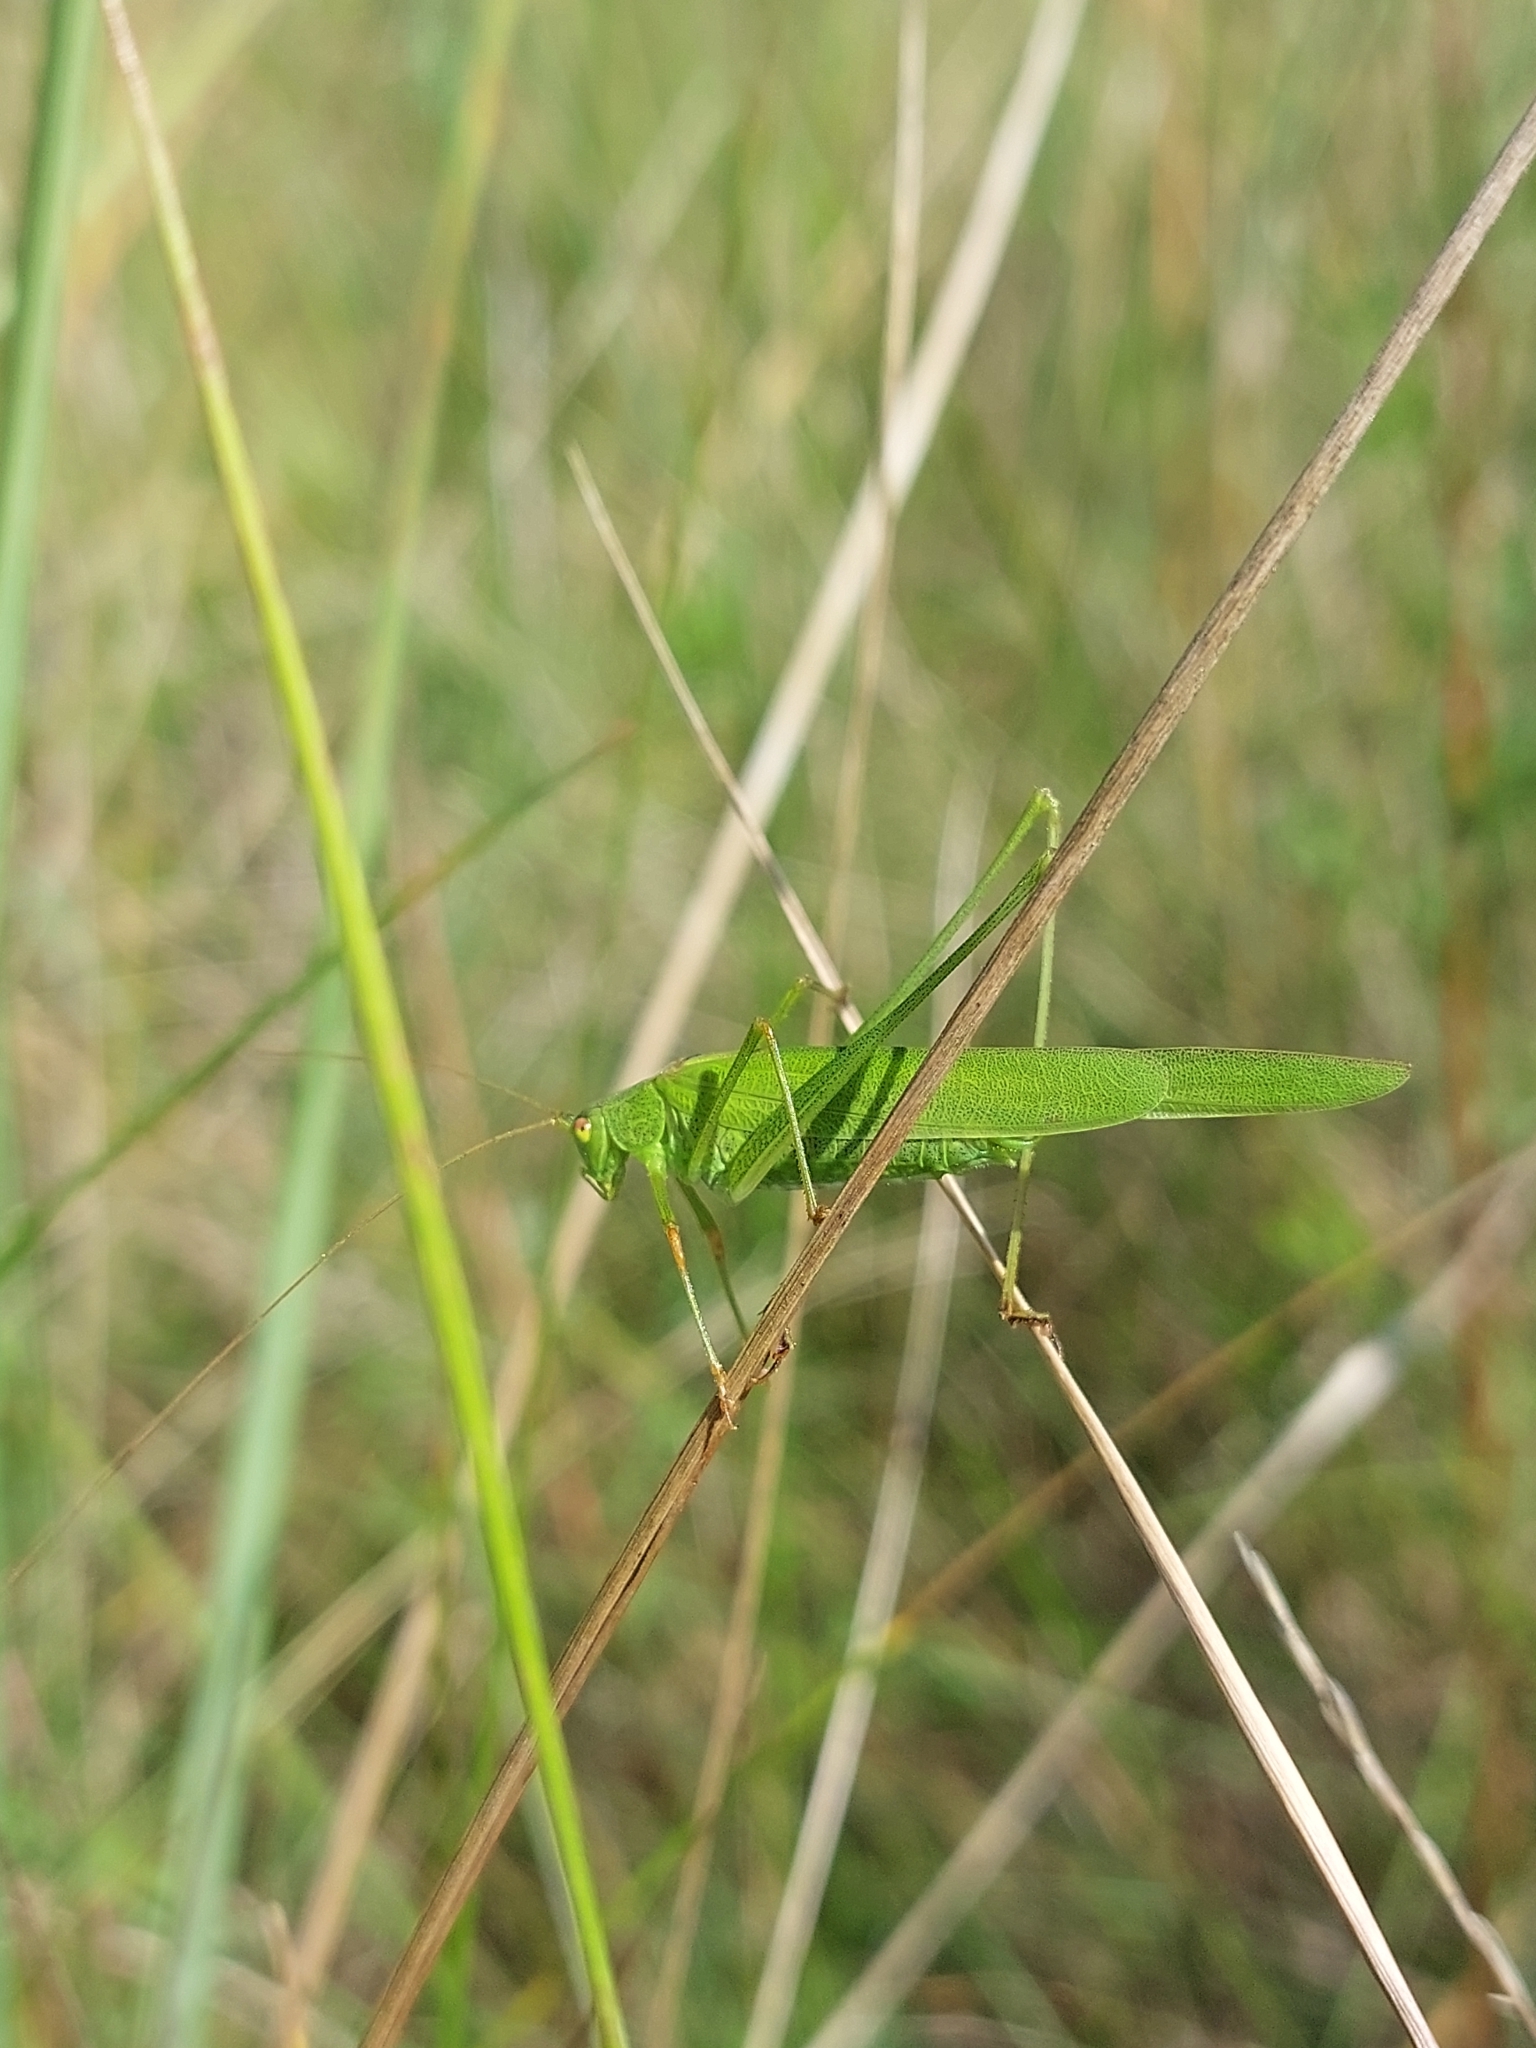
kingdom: Animalia
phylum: Arthropoda
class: Insecta
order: Orthoptera
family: Tettigoniidae
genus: Phaneroptera
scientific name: Phaneroptera falcata
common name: Sickle-bearing bush-cricket
